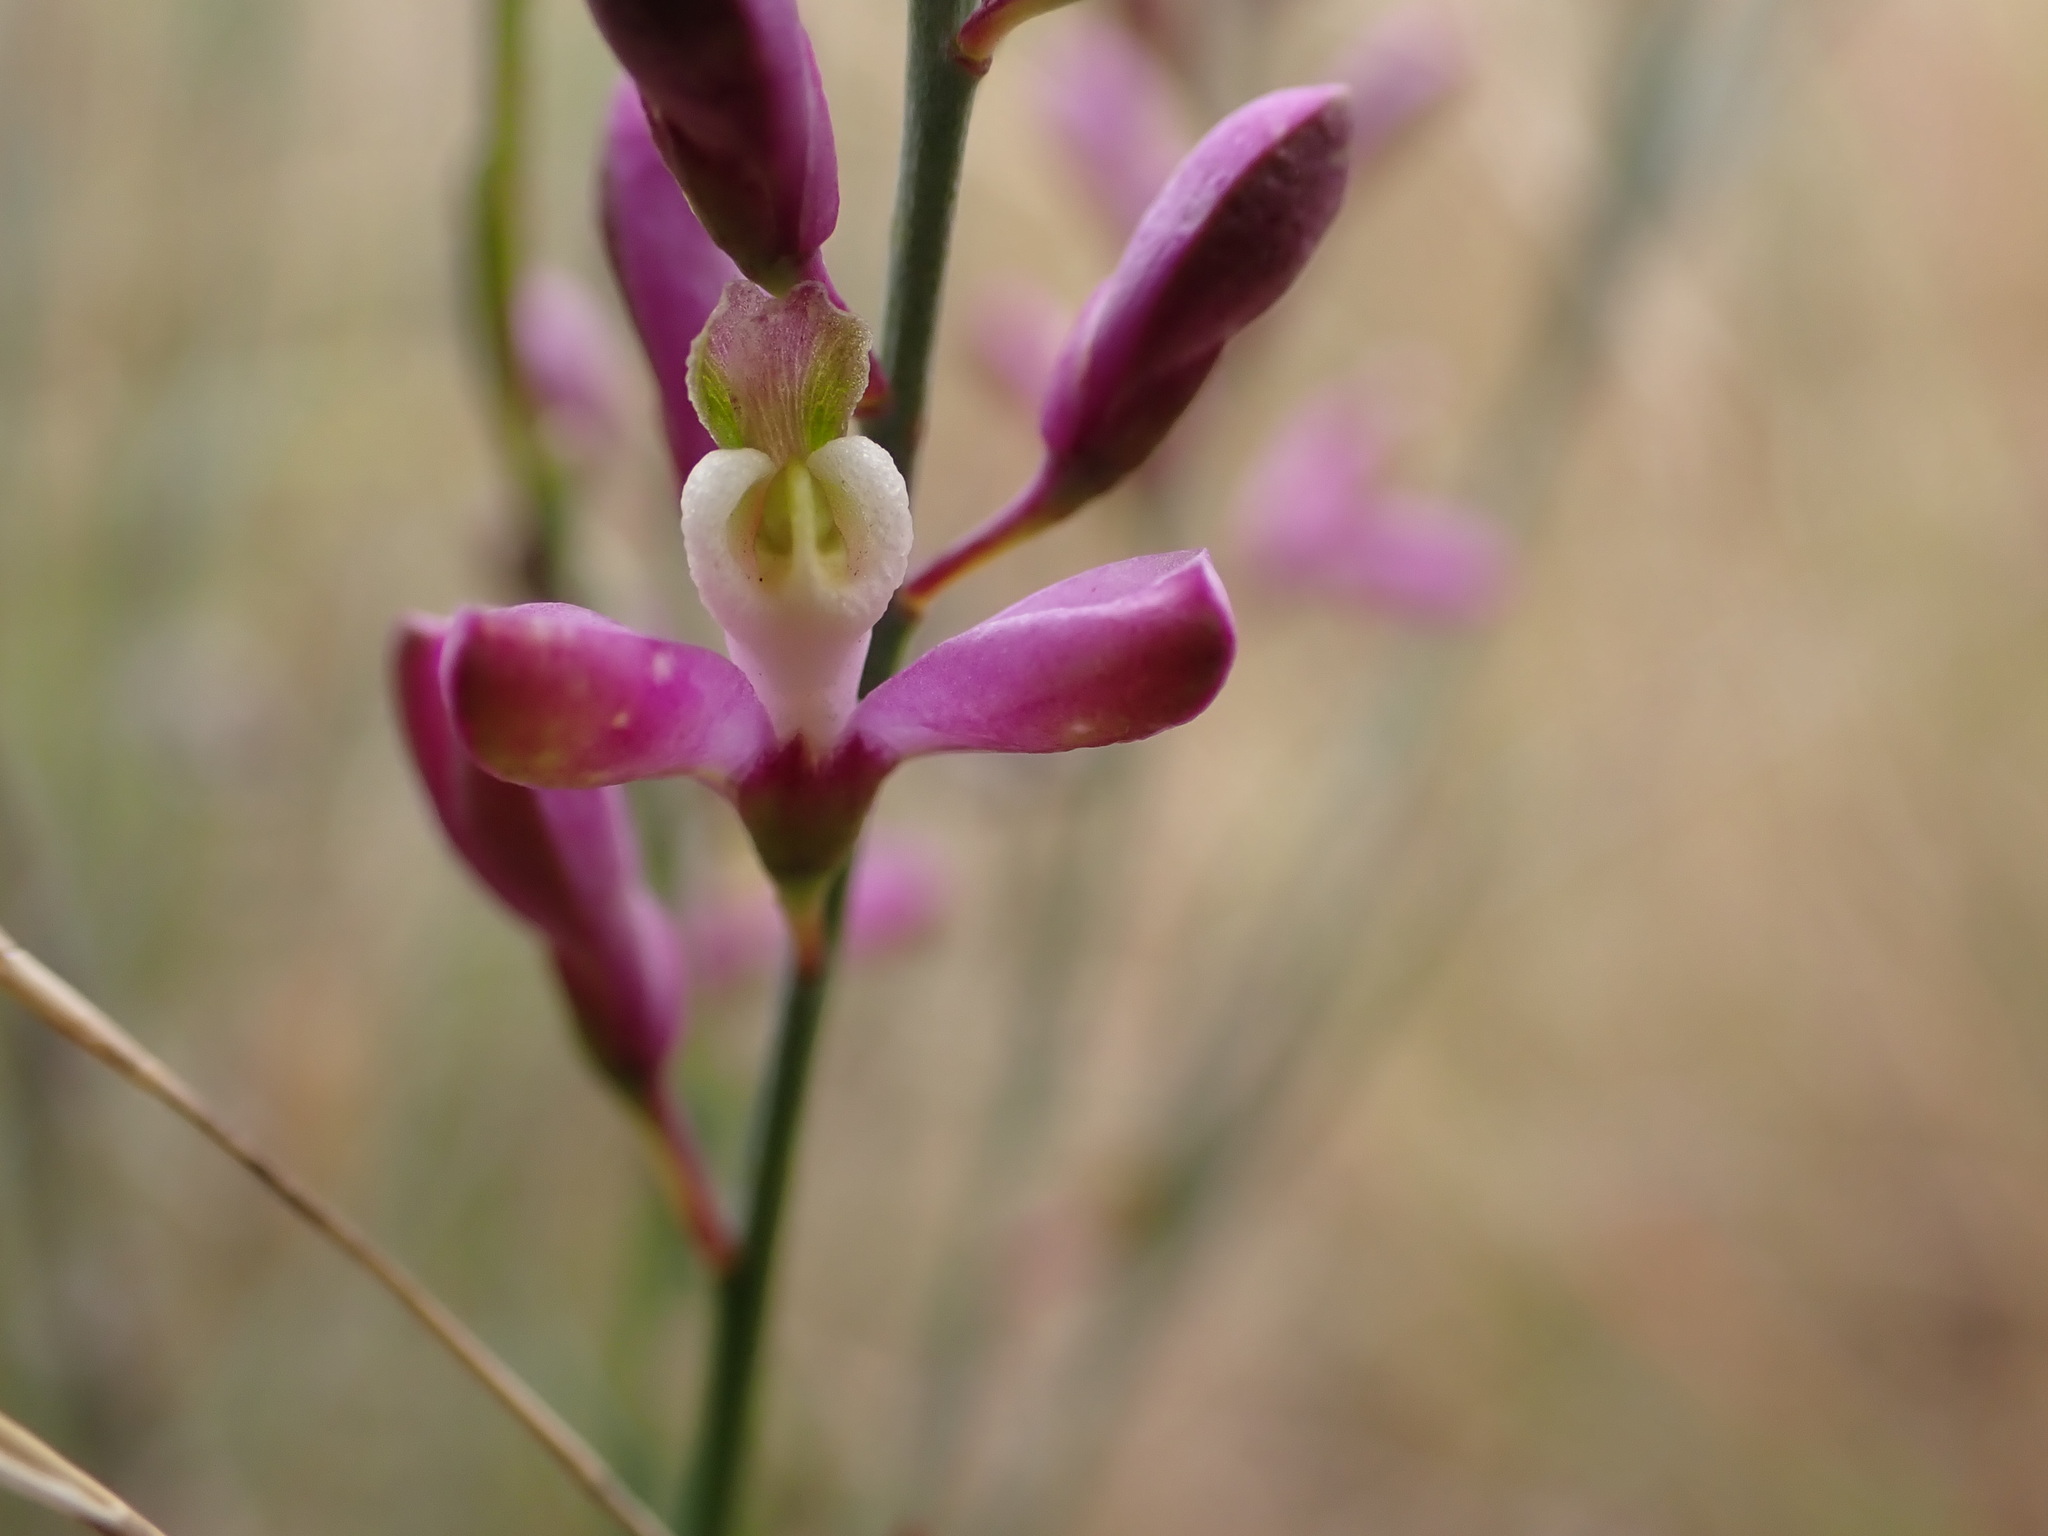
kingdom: Plantae
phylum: Tracheophyta
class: Magnoliopsida
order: Fabales
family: Polygalaceae
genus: Comesperma
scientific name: Comesperma polygaloides
